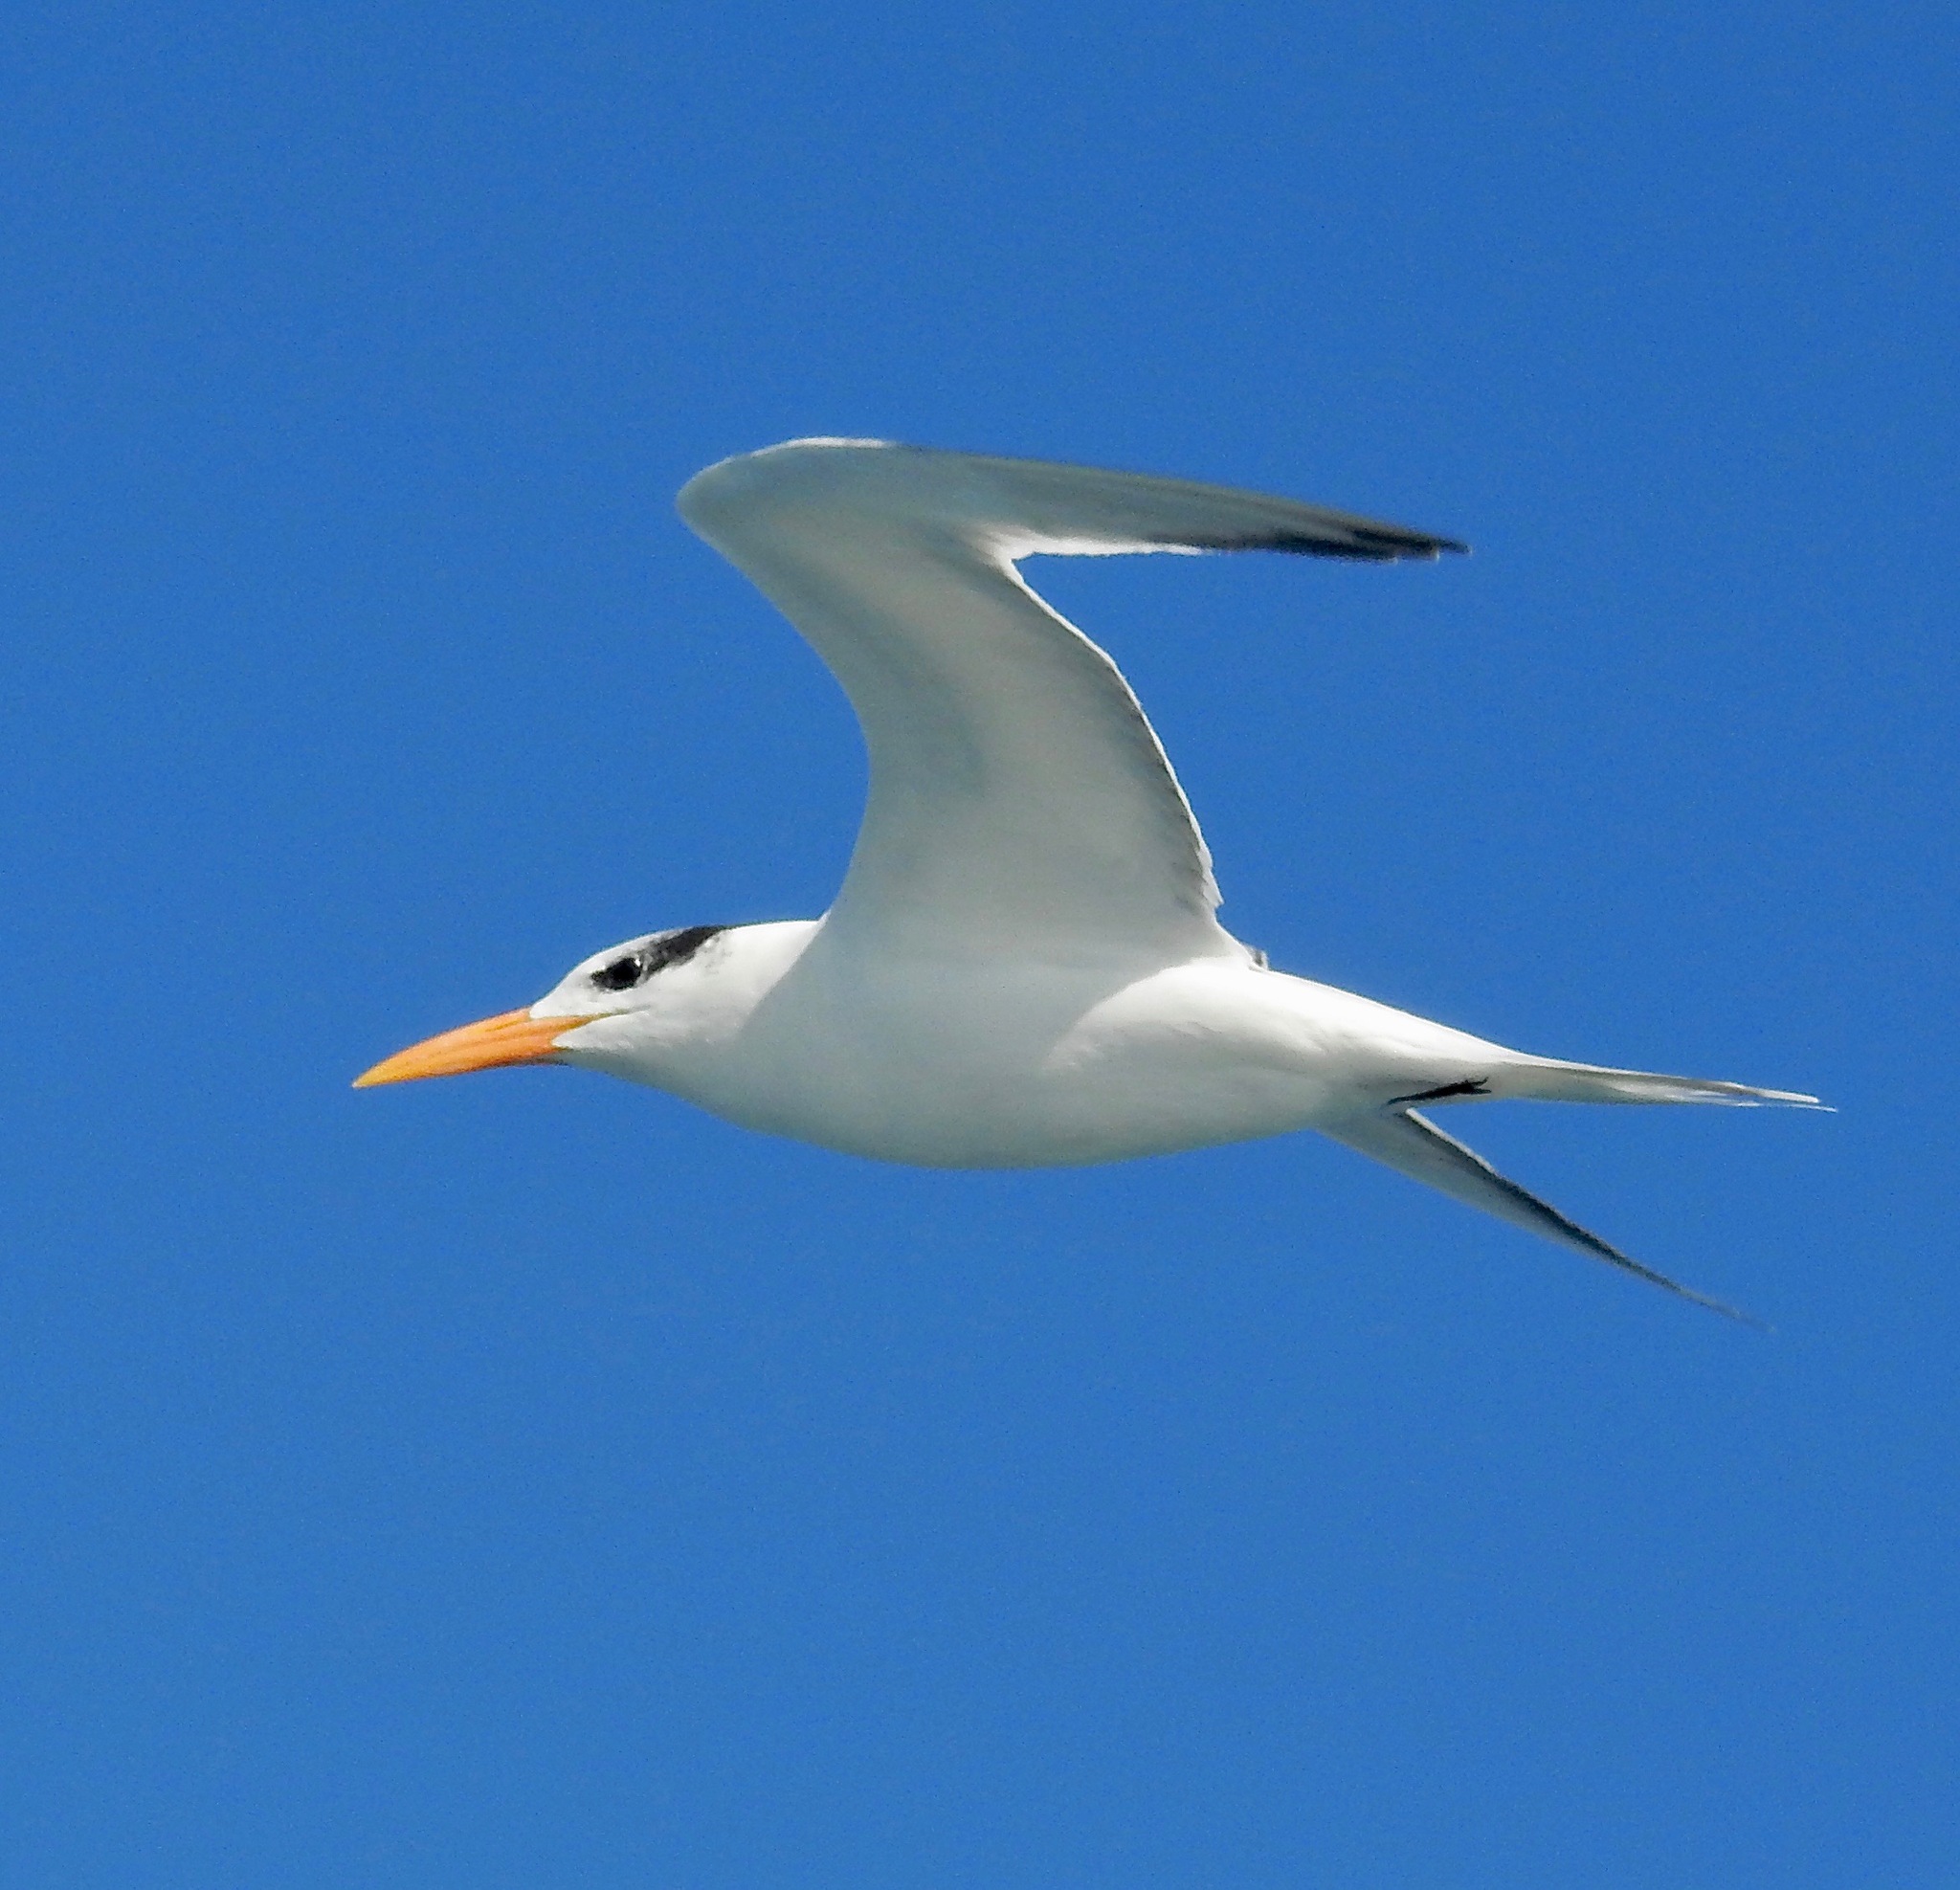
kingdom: Animalia
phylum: Chordata
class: Aves
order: Charadriiformes
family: Laridae
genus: Thalasseus
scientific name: Thalasseus maximus
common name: Royal tern
